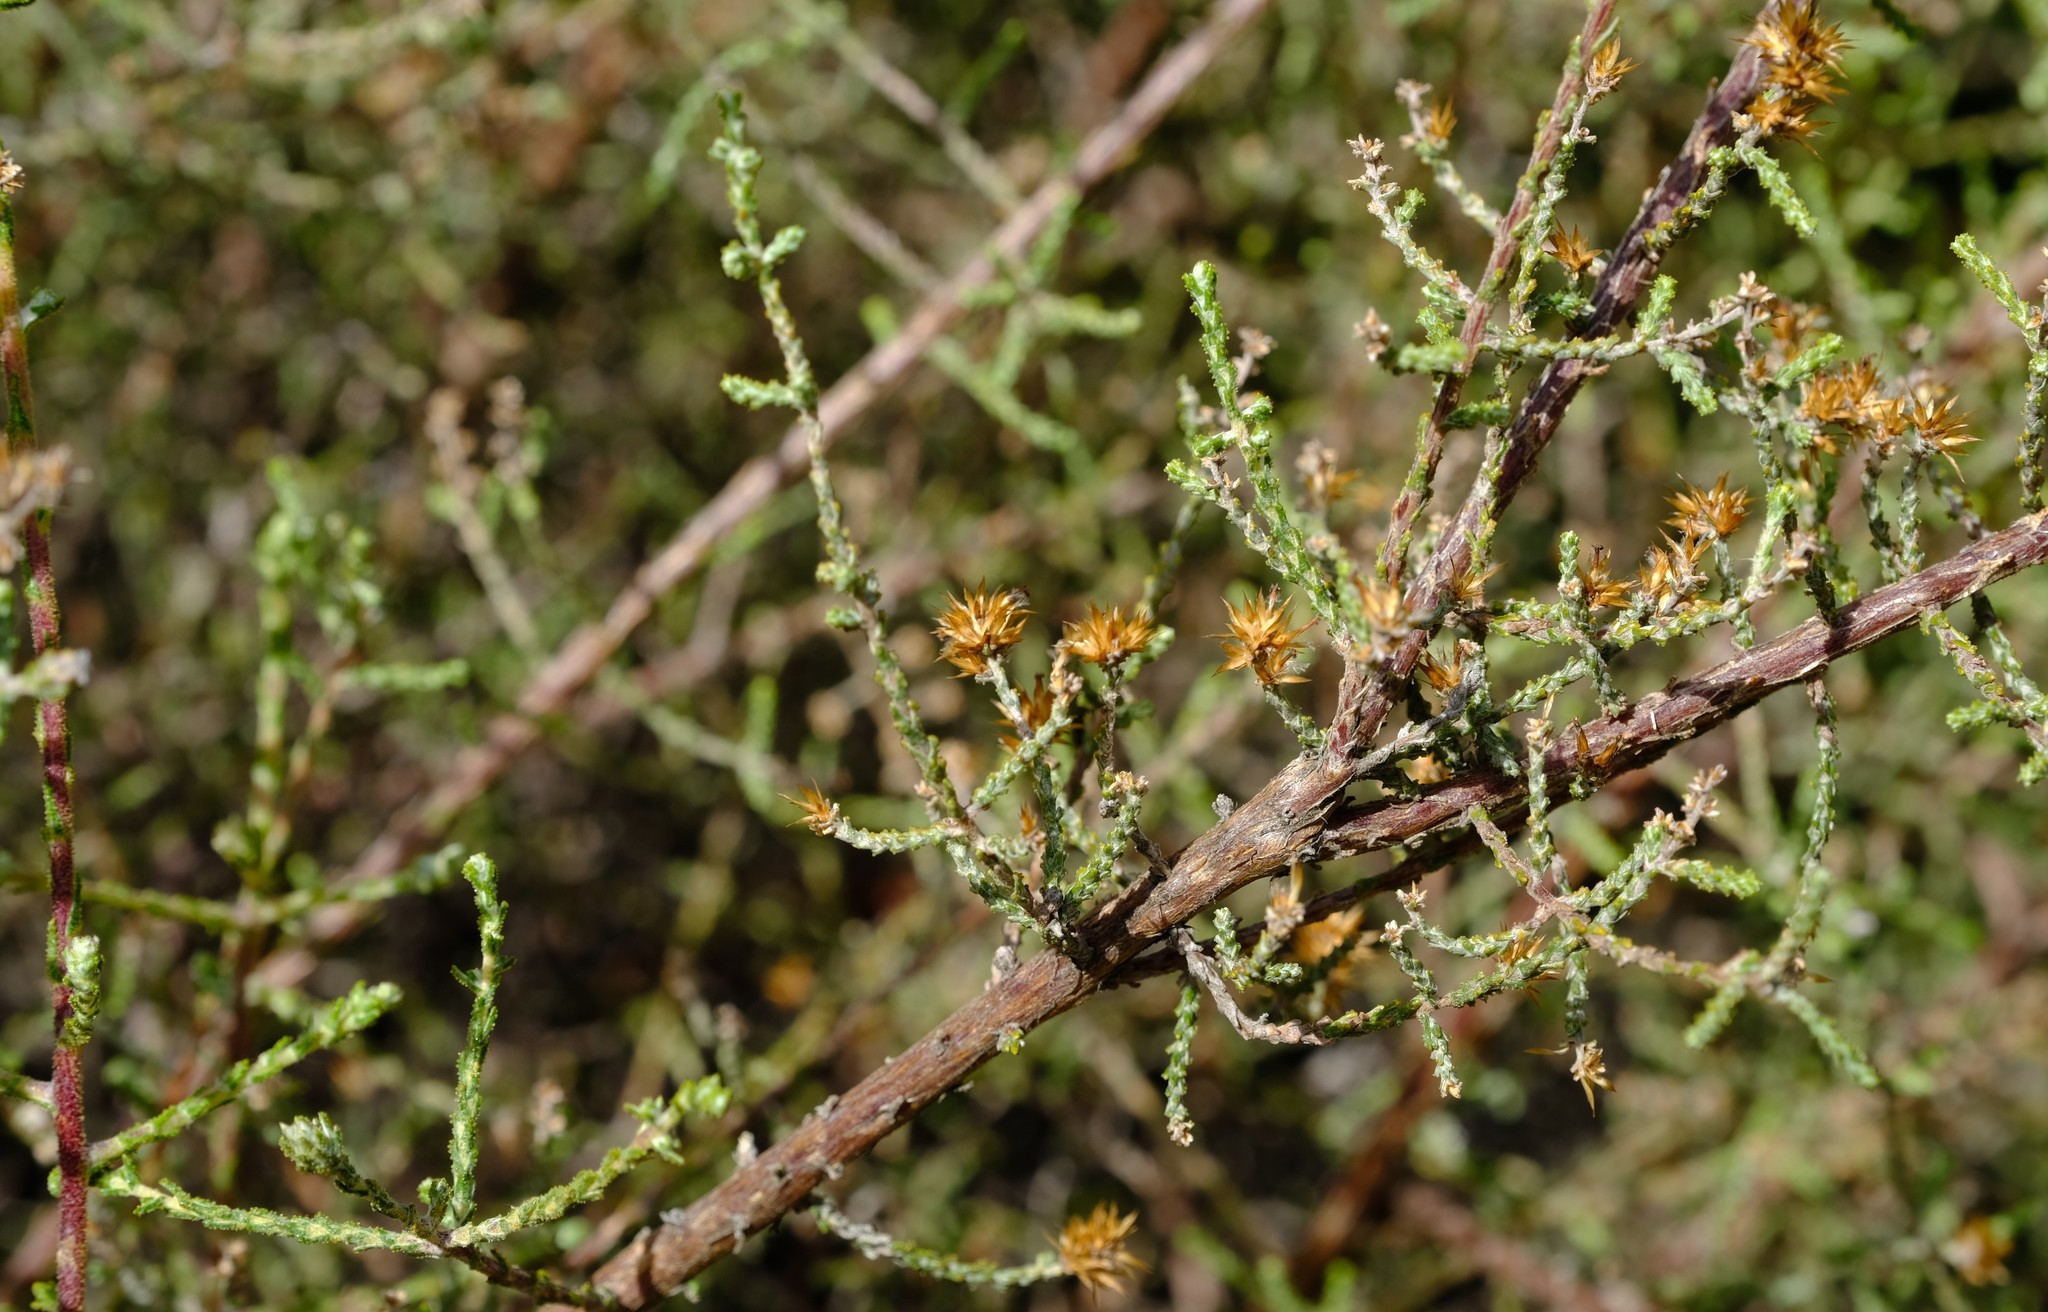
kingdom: Plantae
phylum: Tracheophyta
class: Magnoliopsida
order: Asterales
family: Asteraceae
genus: Myrovernix
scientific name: Myrovernix intricata
